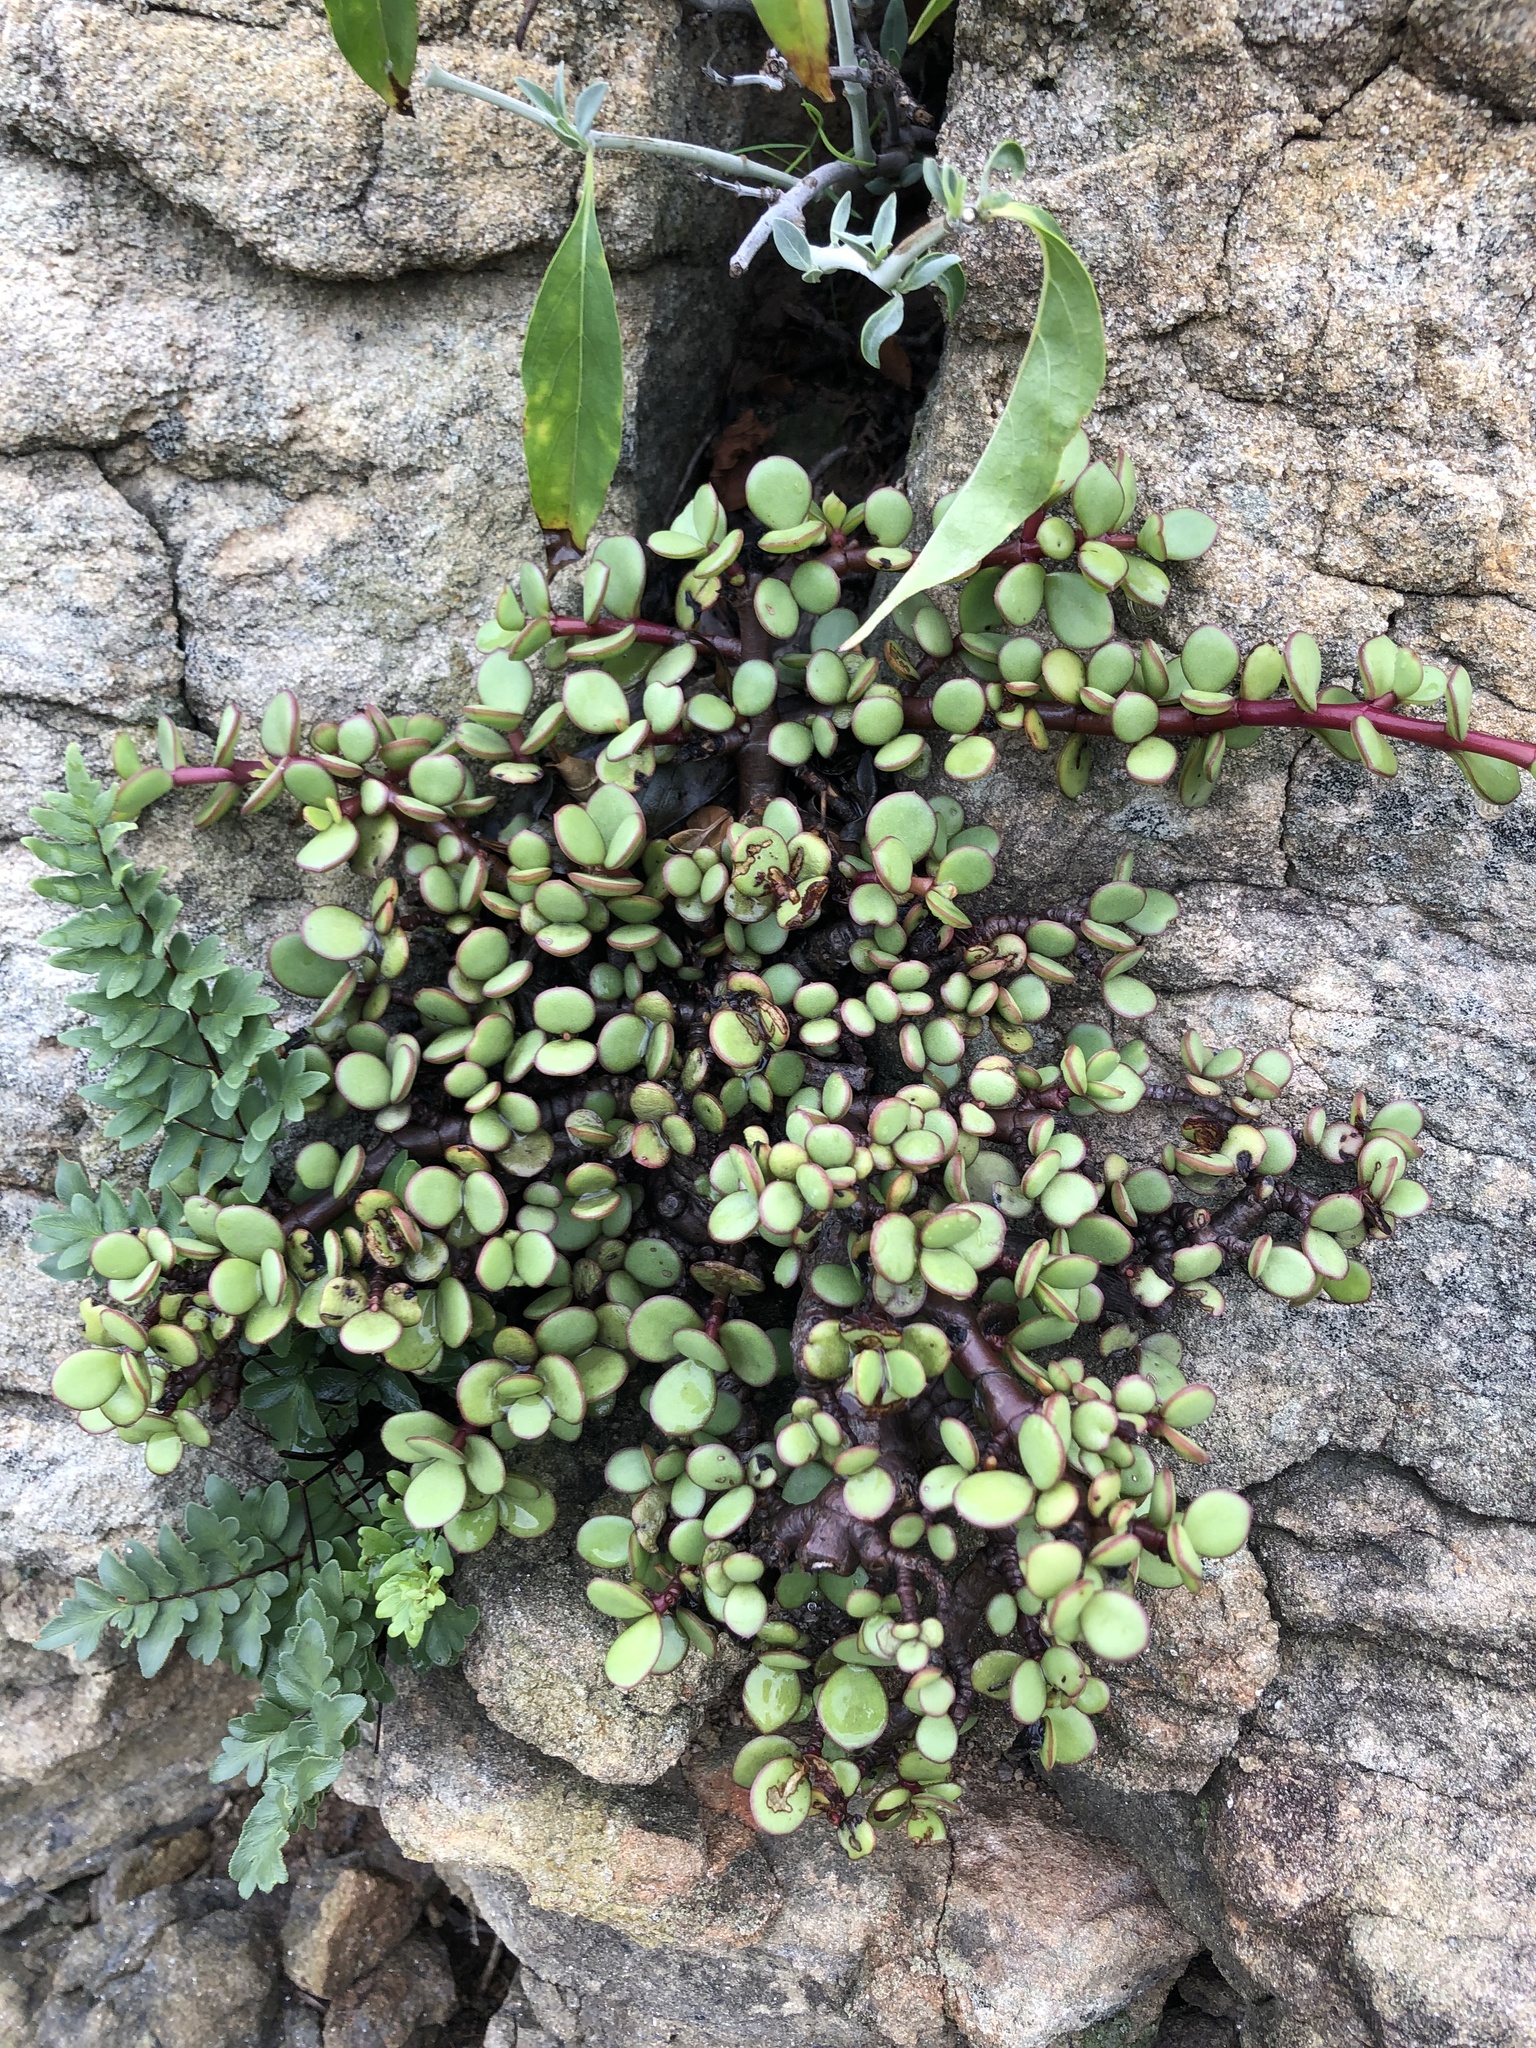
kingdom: Plantae
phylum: Tracheophyta
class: Magnoliopsida
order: Caryophyllales
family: Didiereaceae
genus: Portulacaria
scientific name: Portulacaria afra
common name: Elephant-bush
